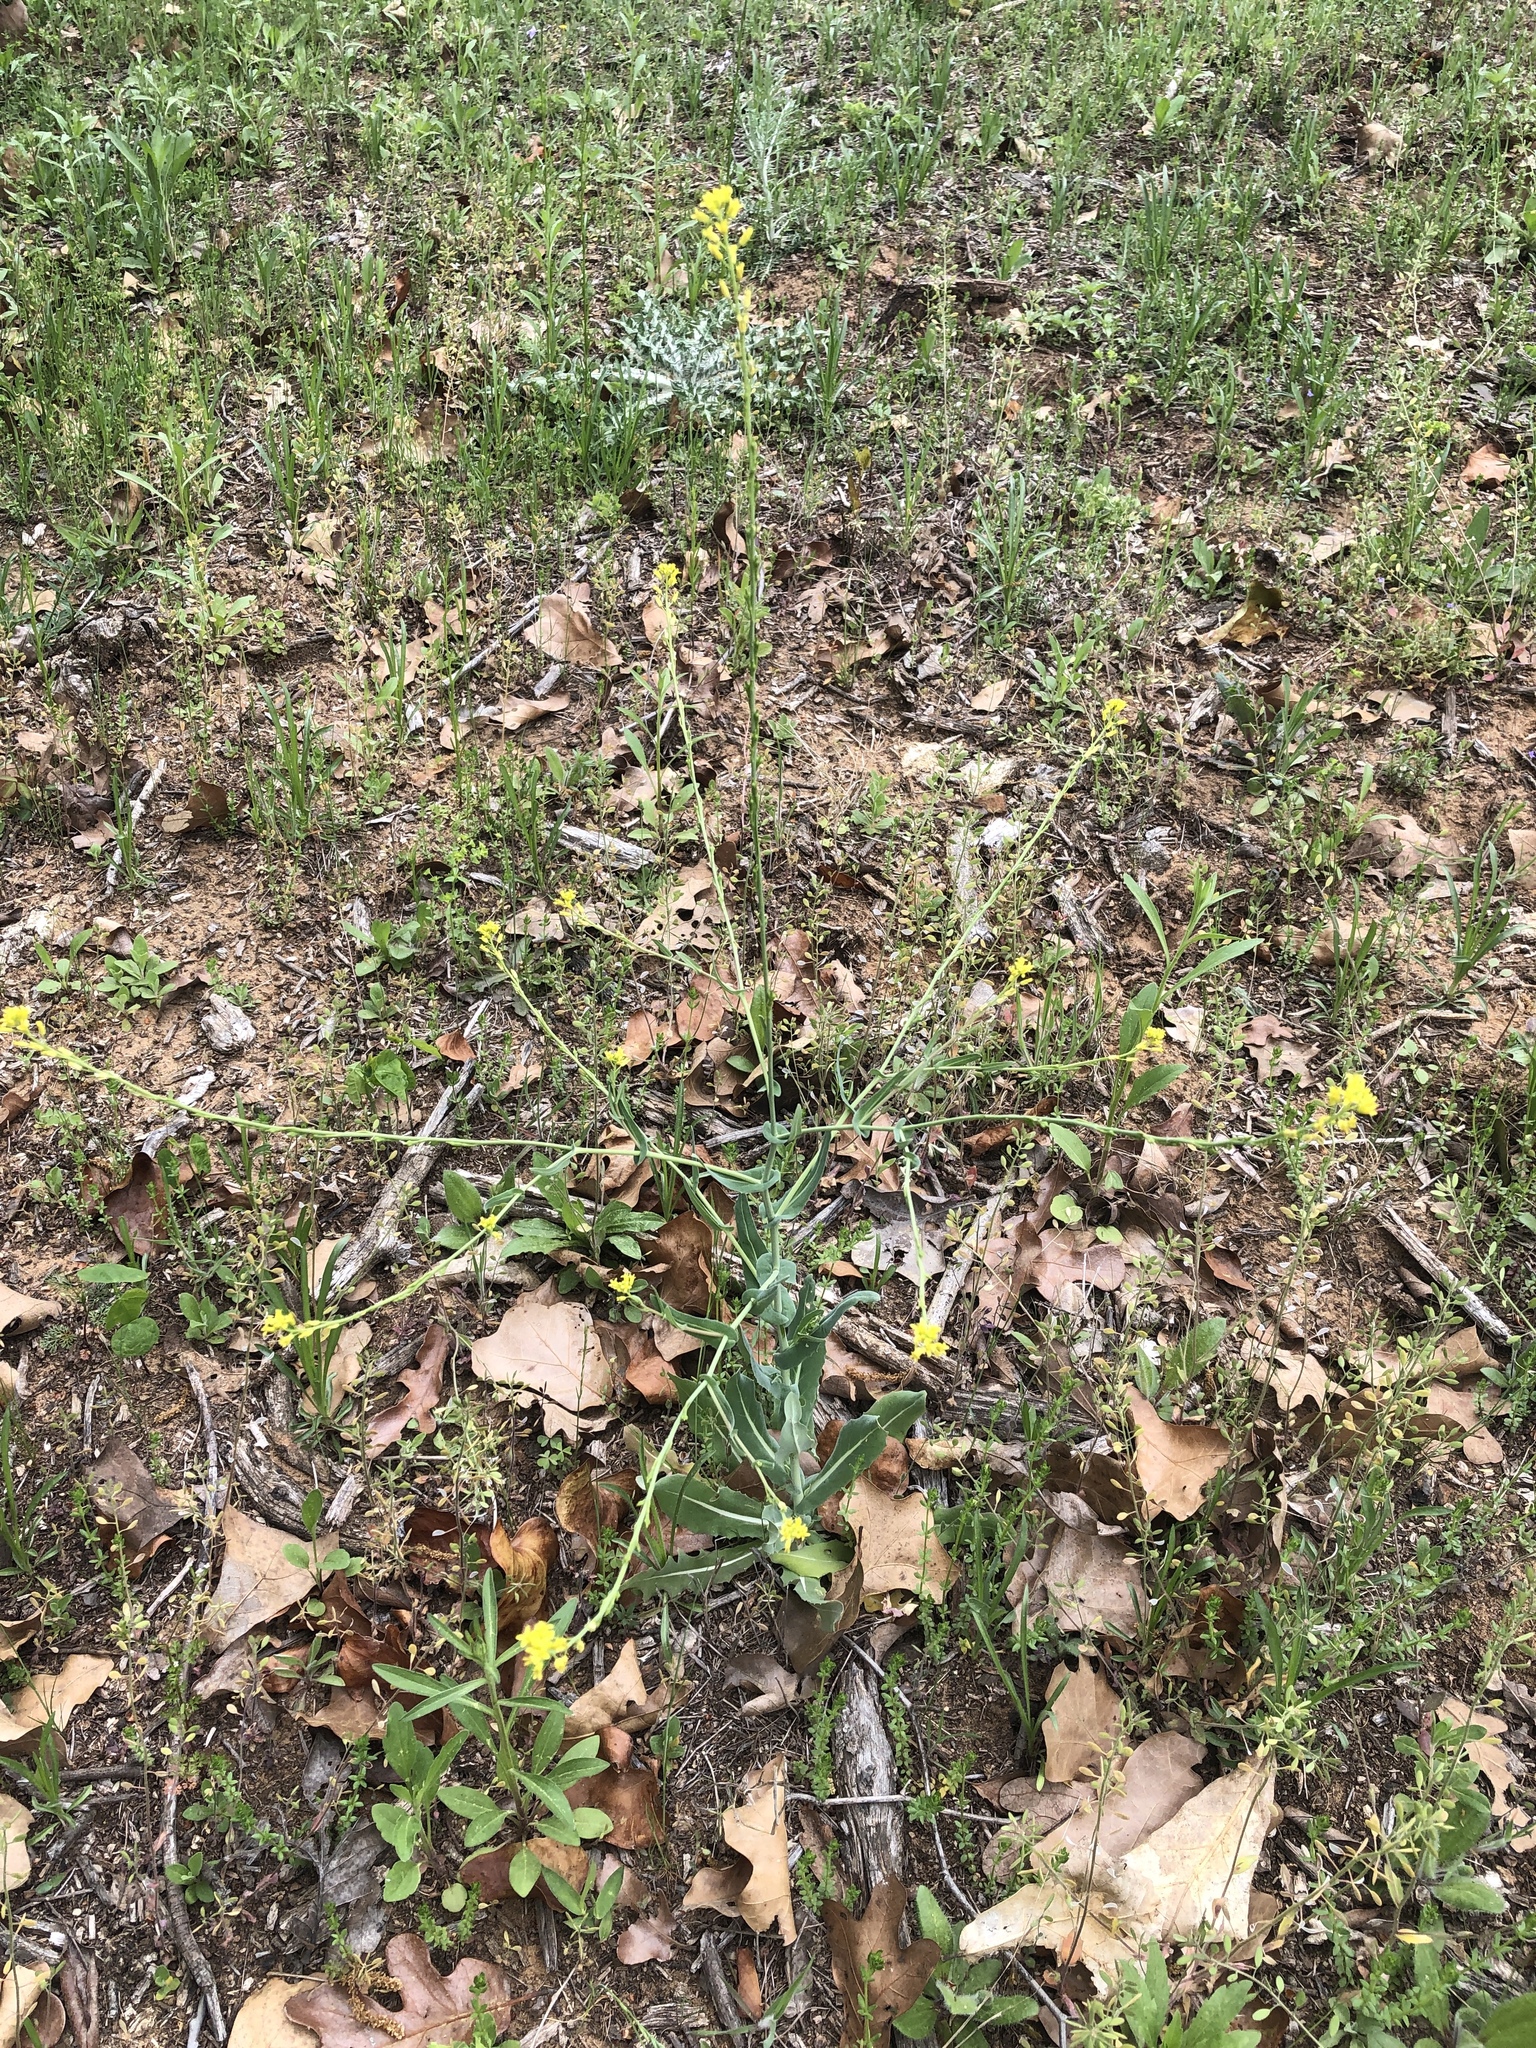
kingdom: Plantae
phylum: Tracheophyta
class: Magnoliopsida
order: Brassicales
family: Brassicaceae
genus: Myagrum
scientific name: Myagrum perfoliatum
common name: Mitre cress
